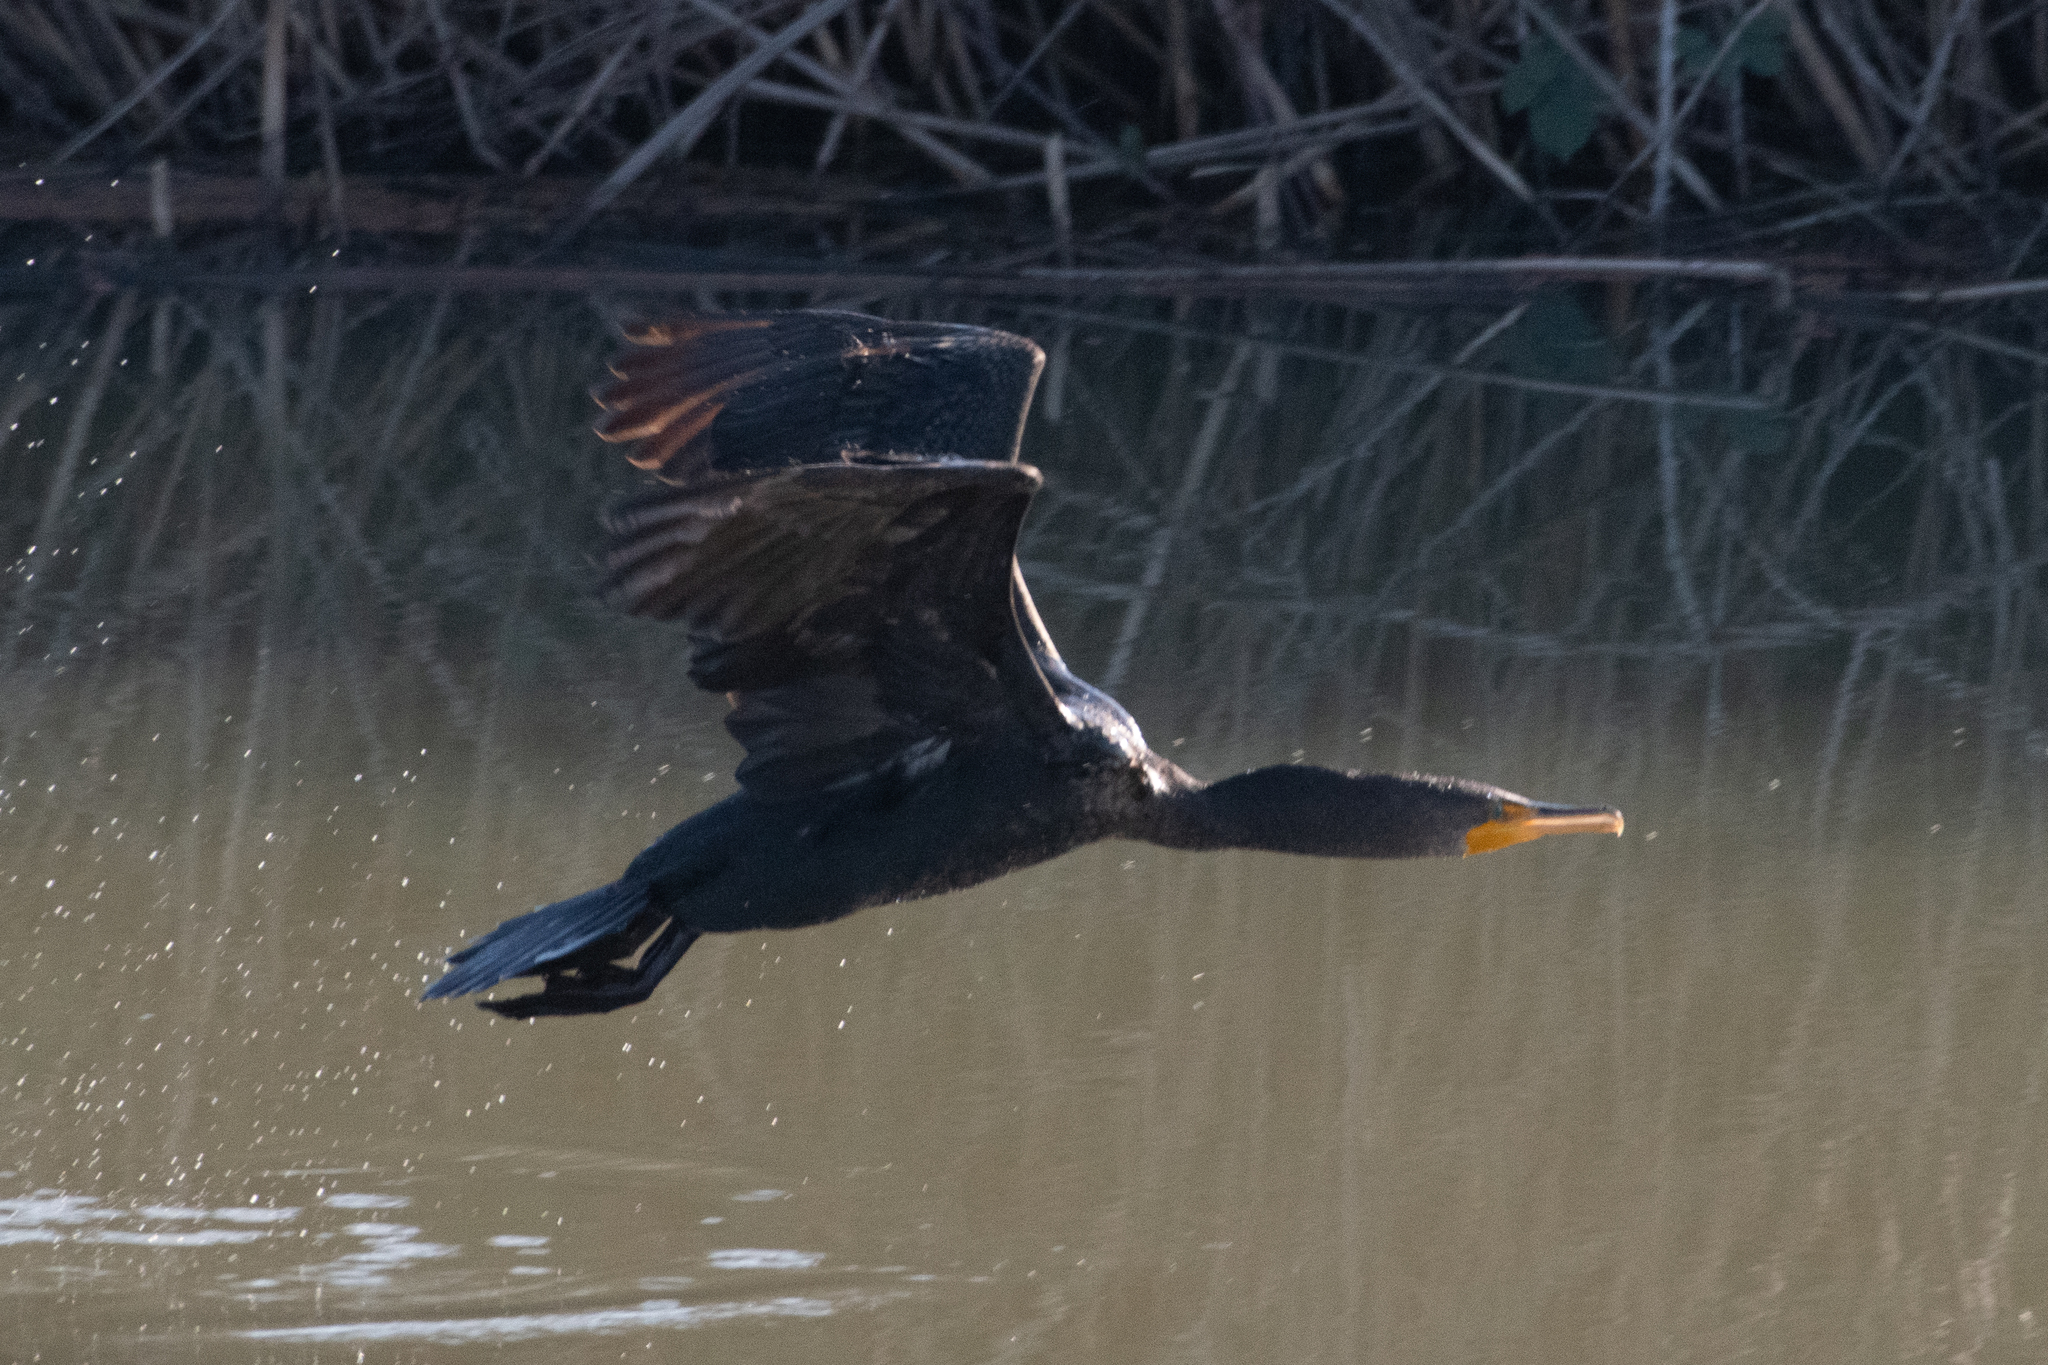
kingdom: Animalia
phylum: Chordata
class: Aves
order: Suliformes
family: Phalacrocoracidae
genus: Phalacrocorax
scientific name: Phalacrocorax auritus
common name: Double-crested cormorant
